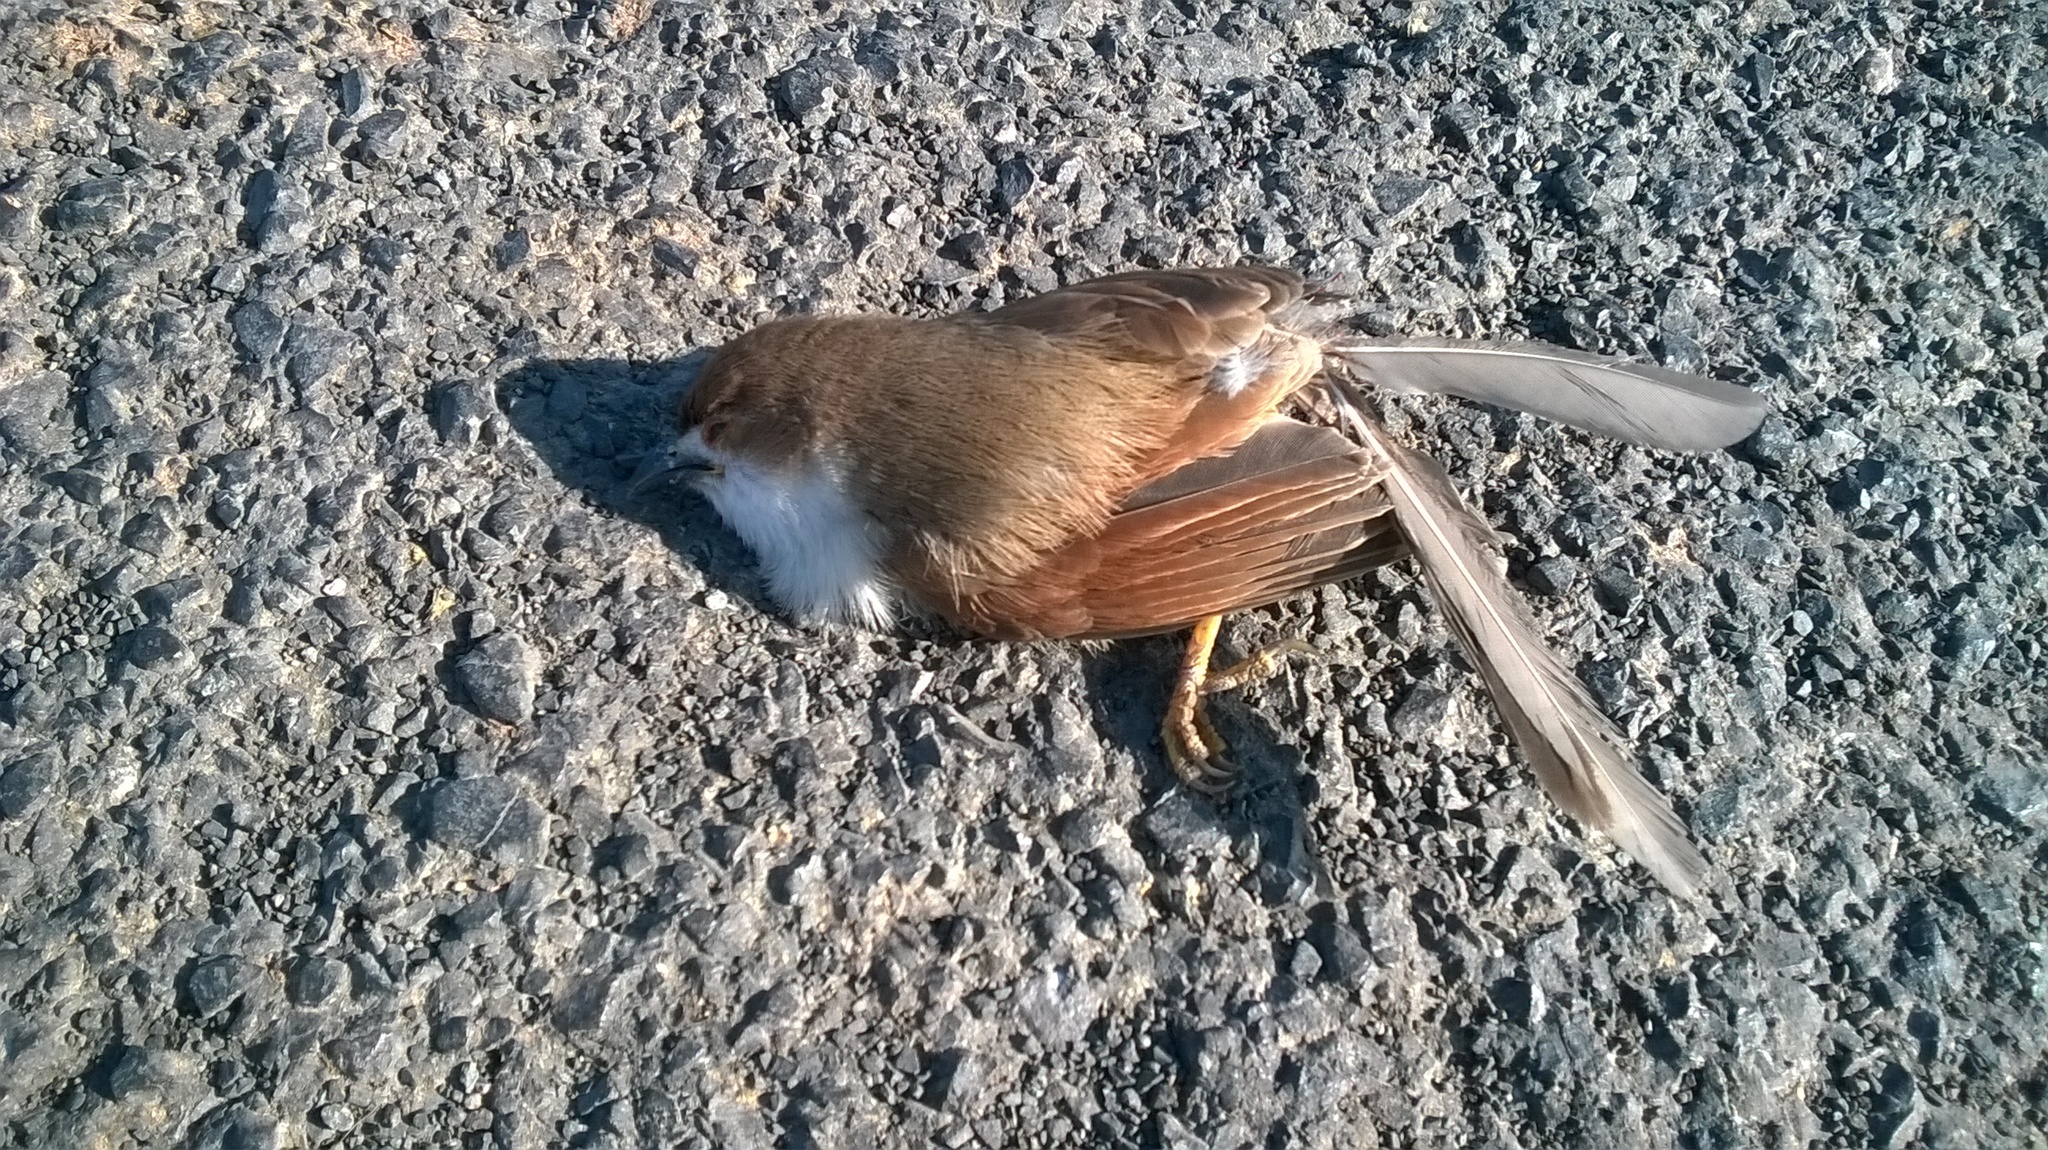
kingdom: Animalia
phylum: Chordata
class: Aves
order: Passeriformes
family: Sylviidae
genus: Chrysomma
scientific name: Chrysomma sinense
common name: Yellow-eyed babbler
